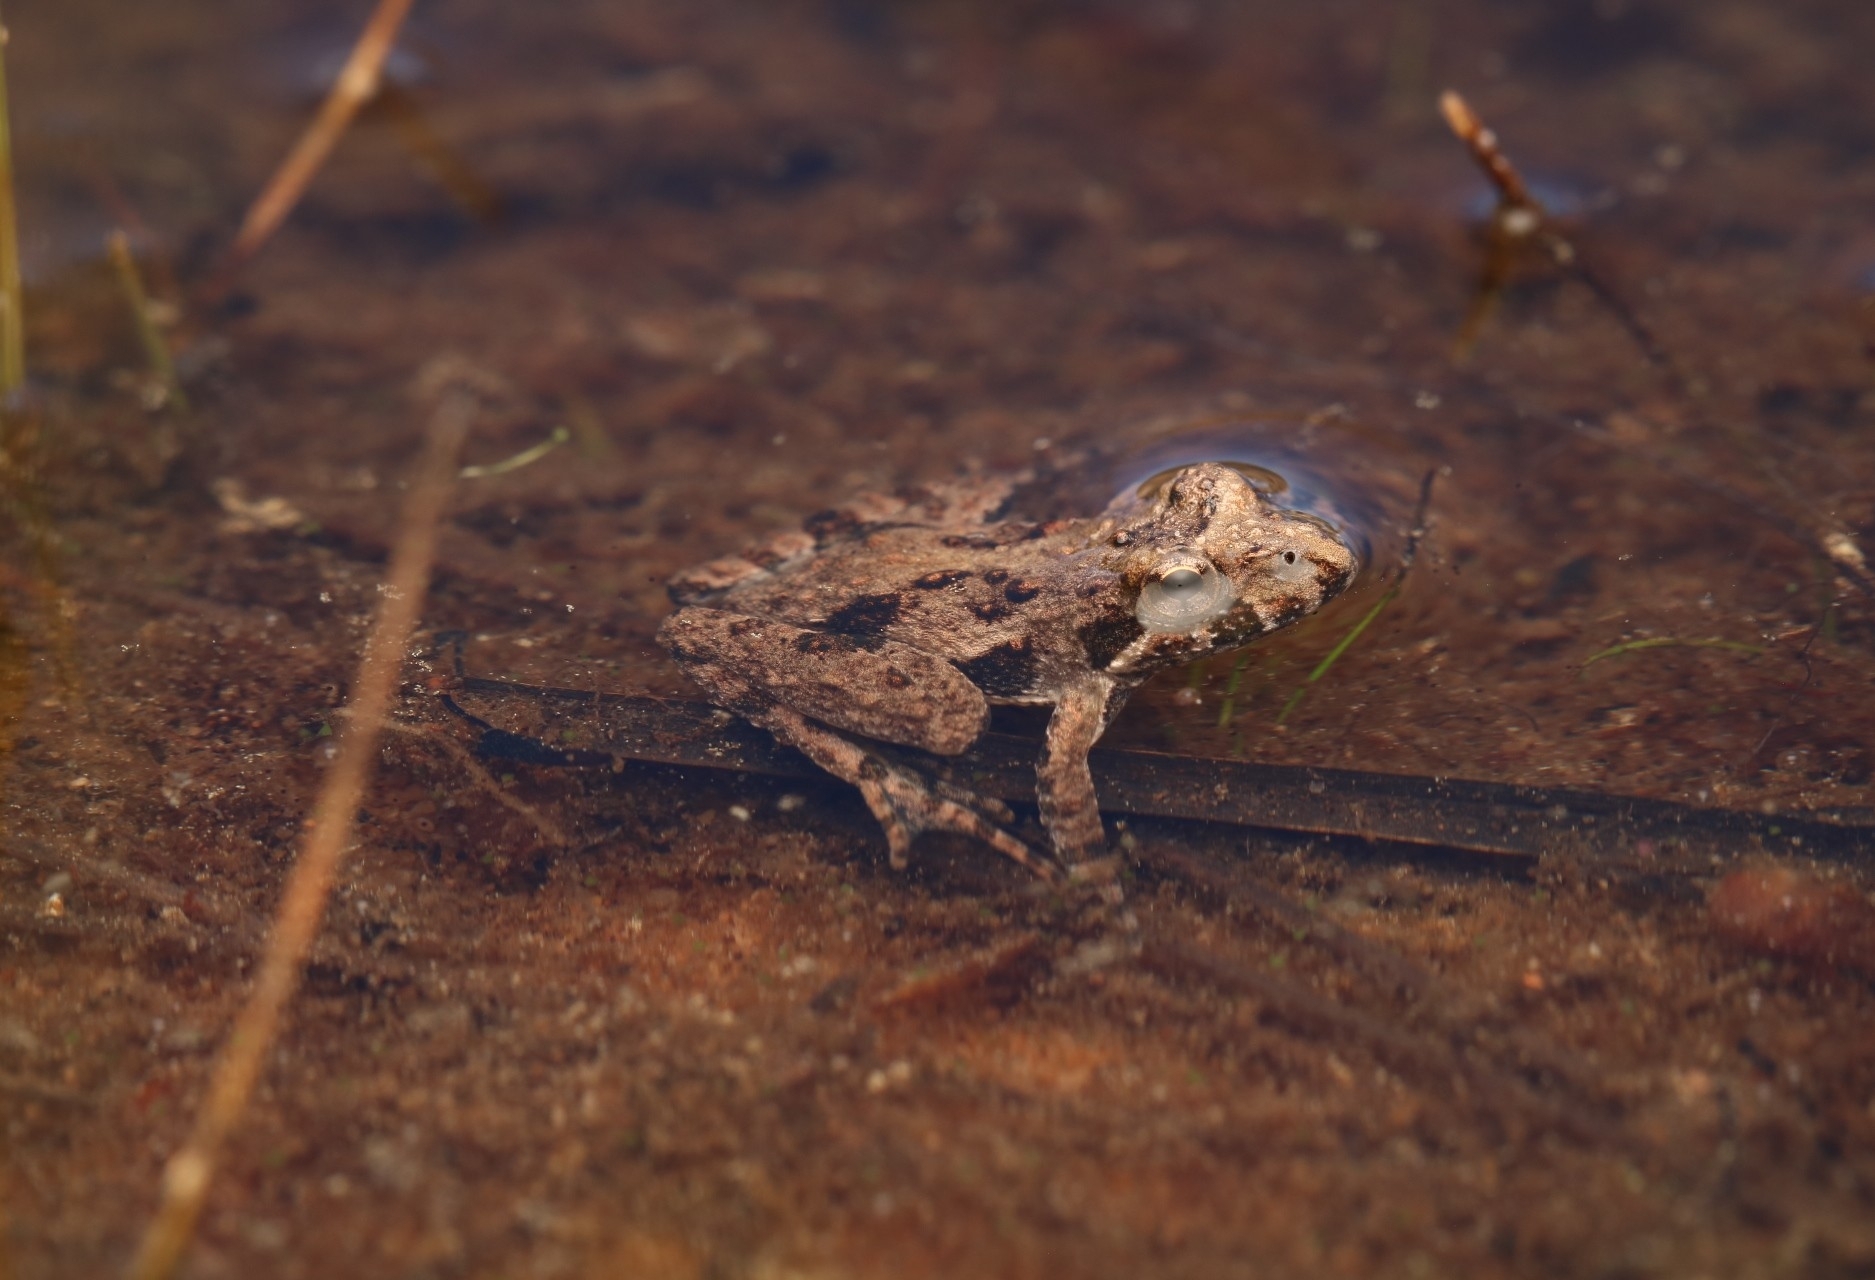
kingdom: Animalia
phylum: Chordata
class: Amphibia
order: Anura
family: Hylidae
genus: Acris
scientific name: Acris crepitans
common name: Northern cricket frog
